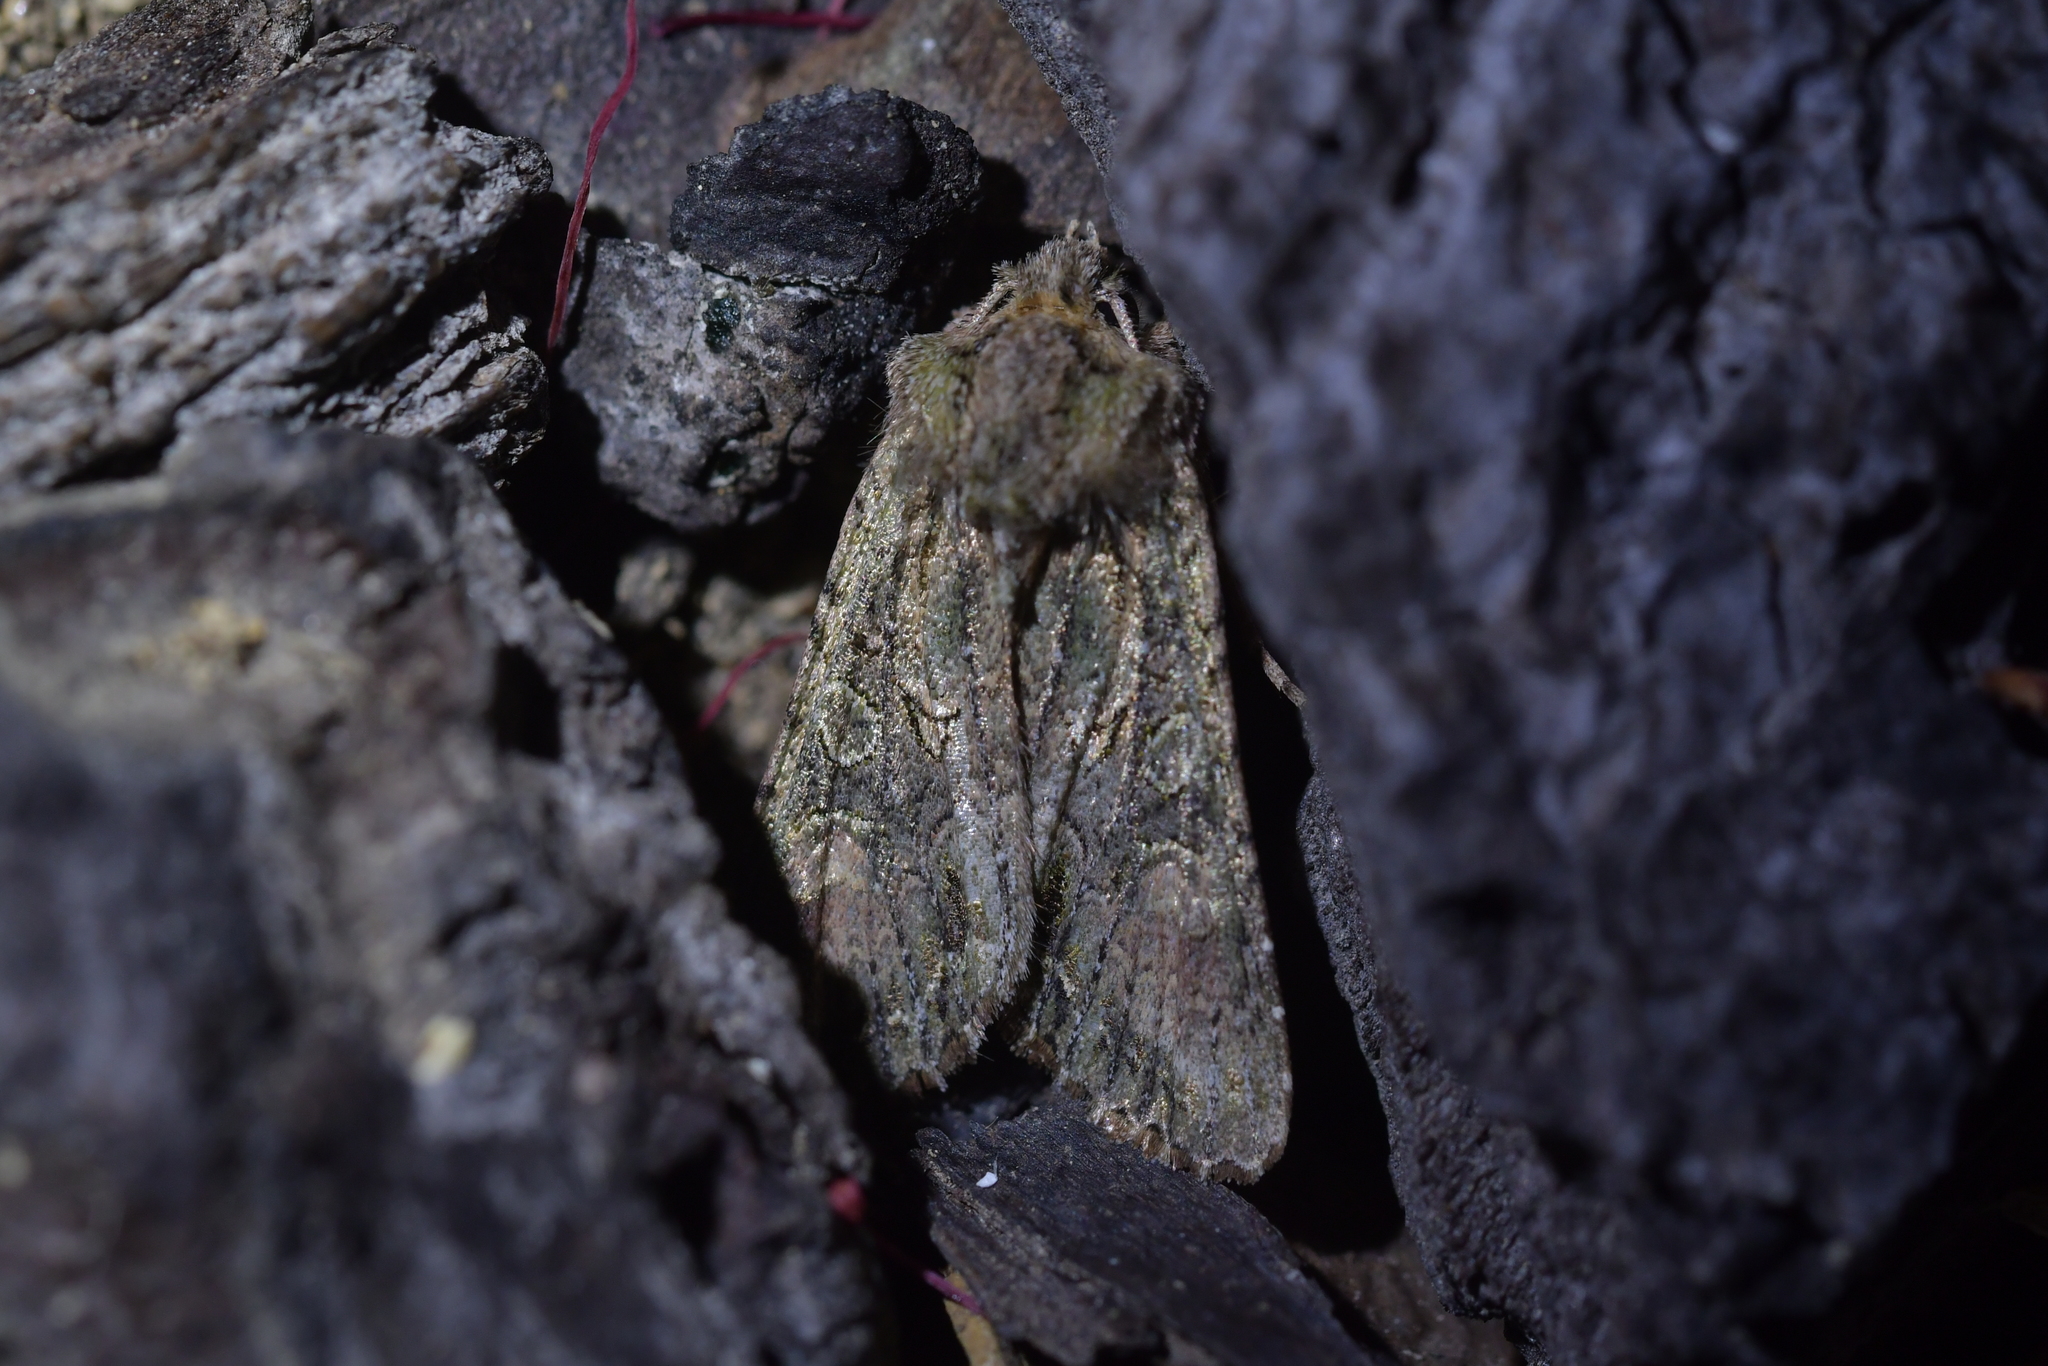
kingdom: Animalia
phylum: Arthropoda
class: Insecta
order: Lepidoptera
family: Noctuidae
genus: Ichneutica
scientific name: Ichneutica mutans
